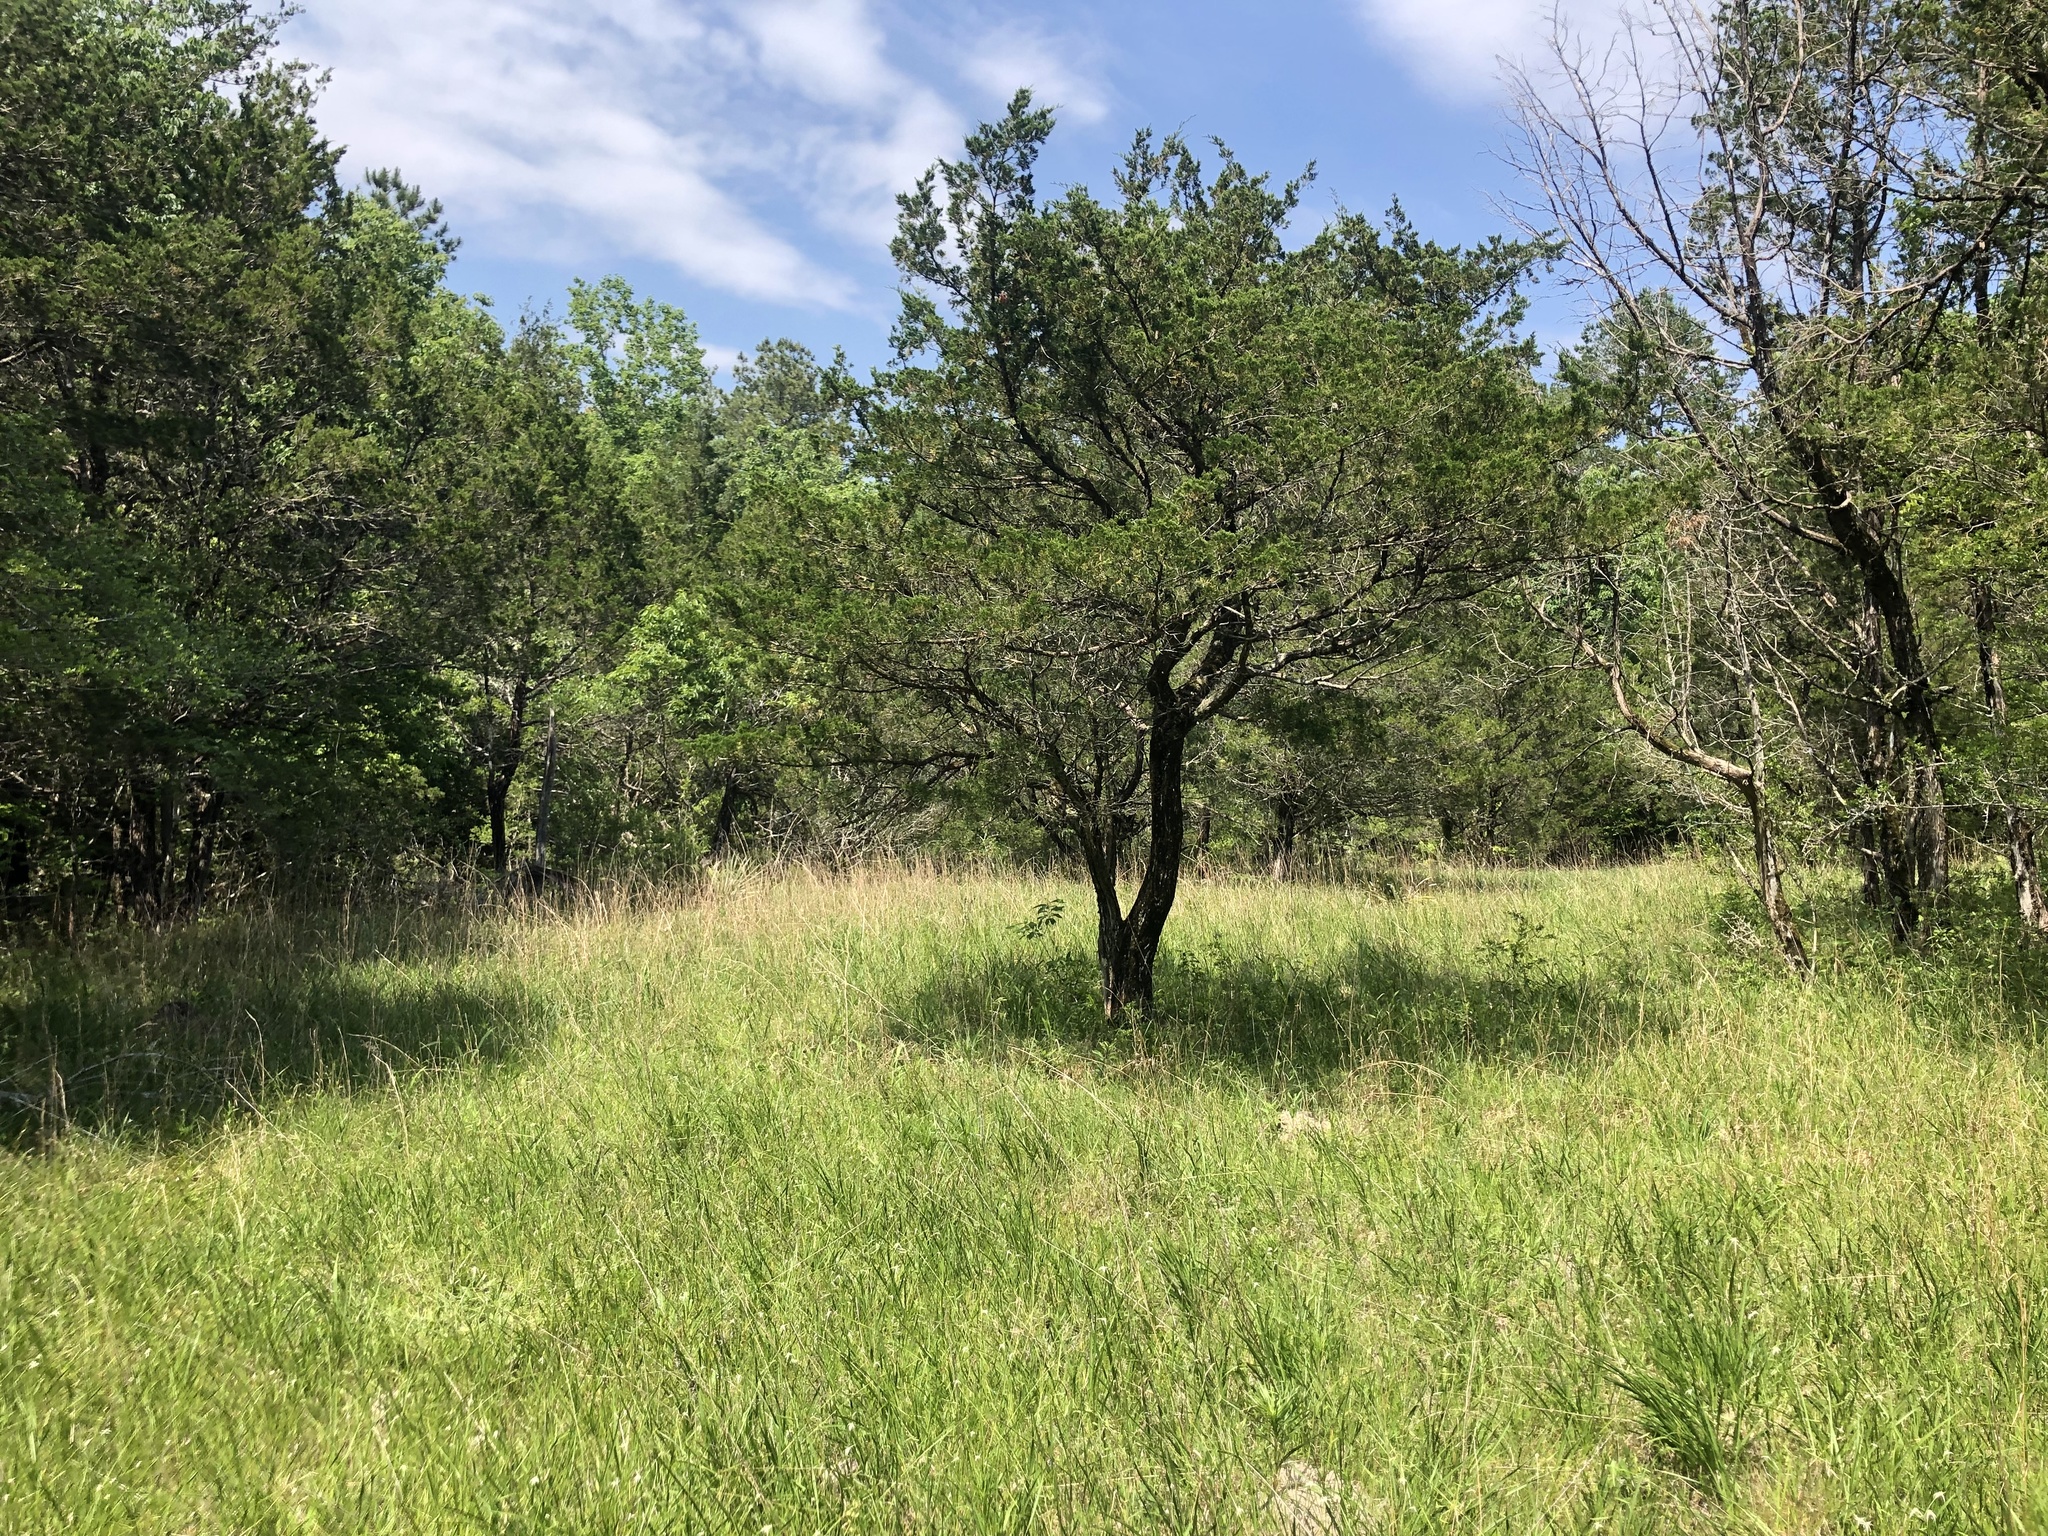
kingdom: Plantae
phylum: Tracheophyta
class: Pinopsida
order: Pinales
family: Cupressaceae
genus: Juniperus
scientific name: Juniperus virginiana
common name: Red juniper
